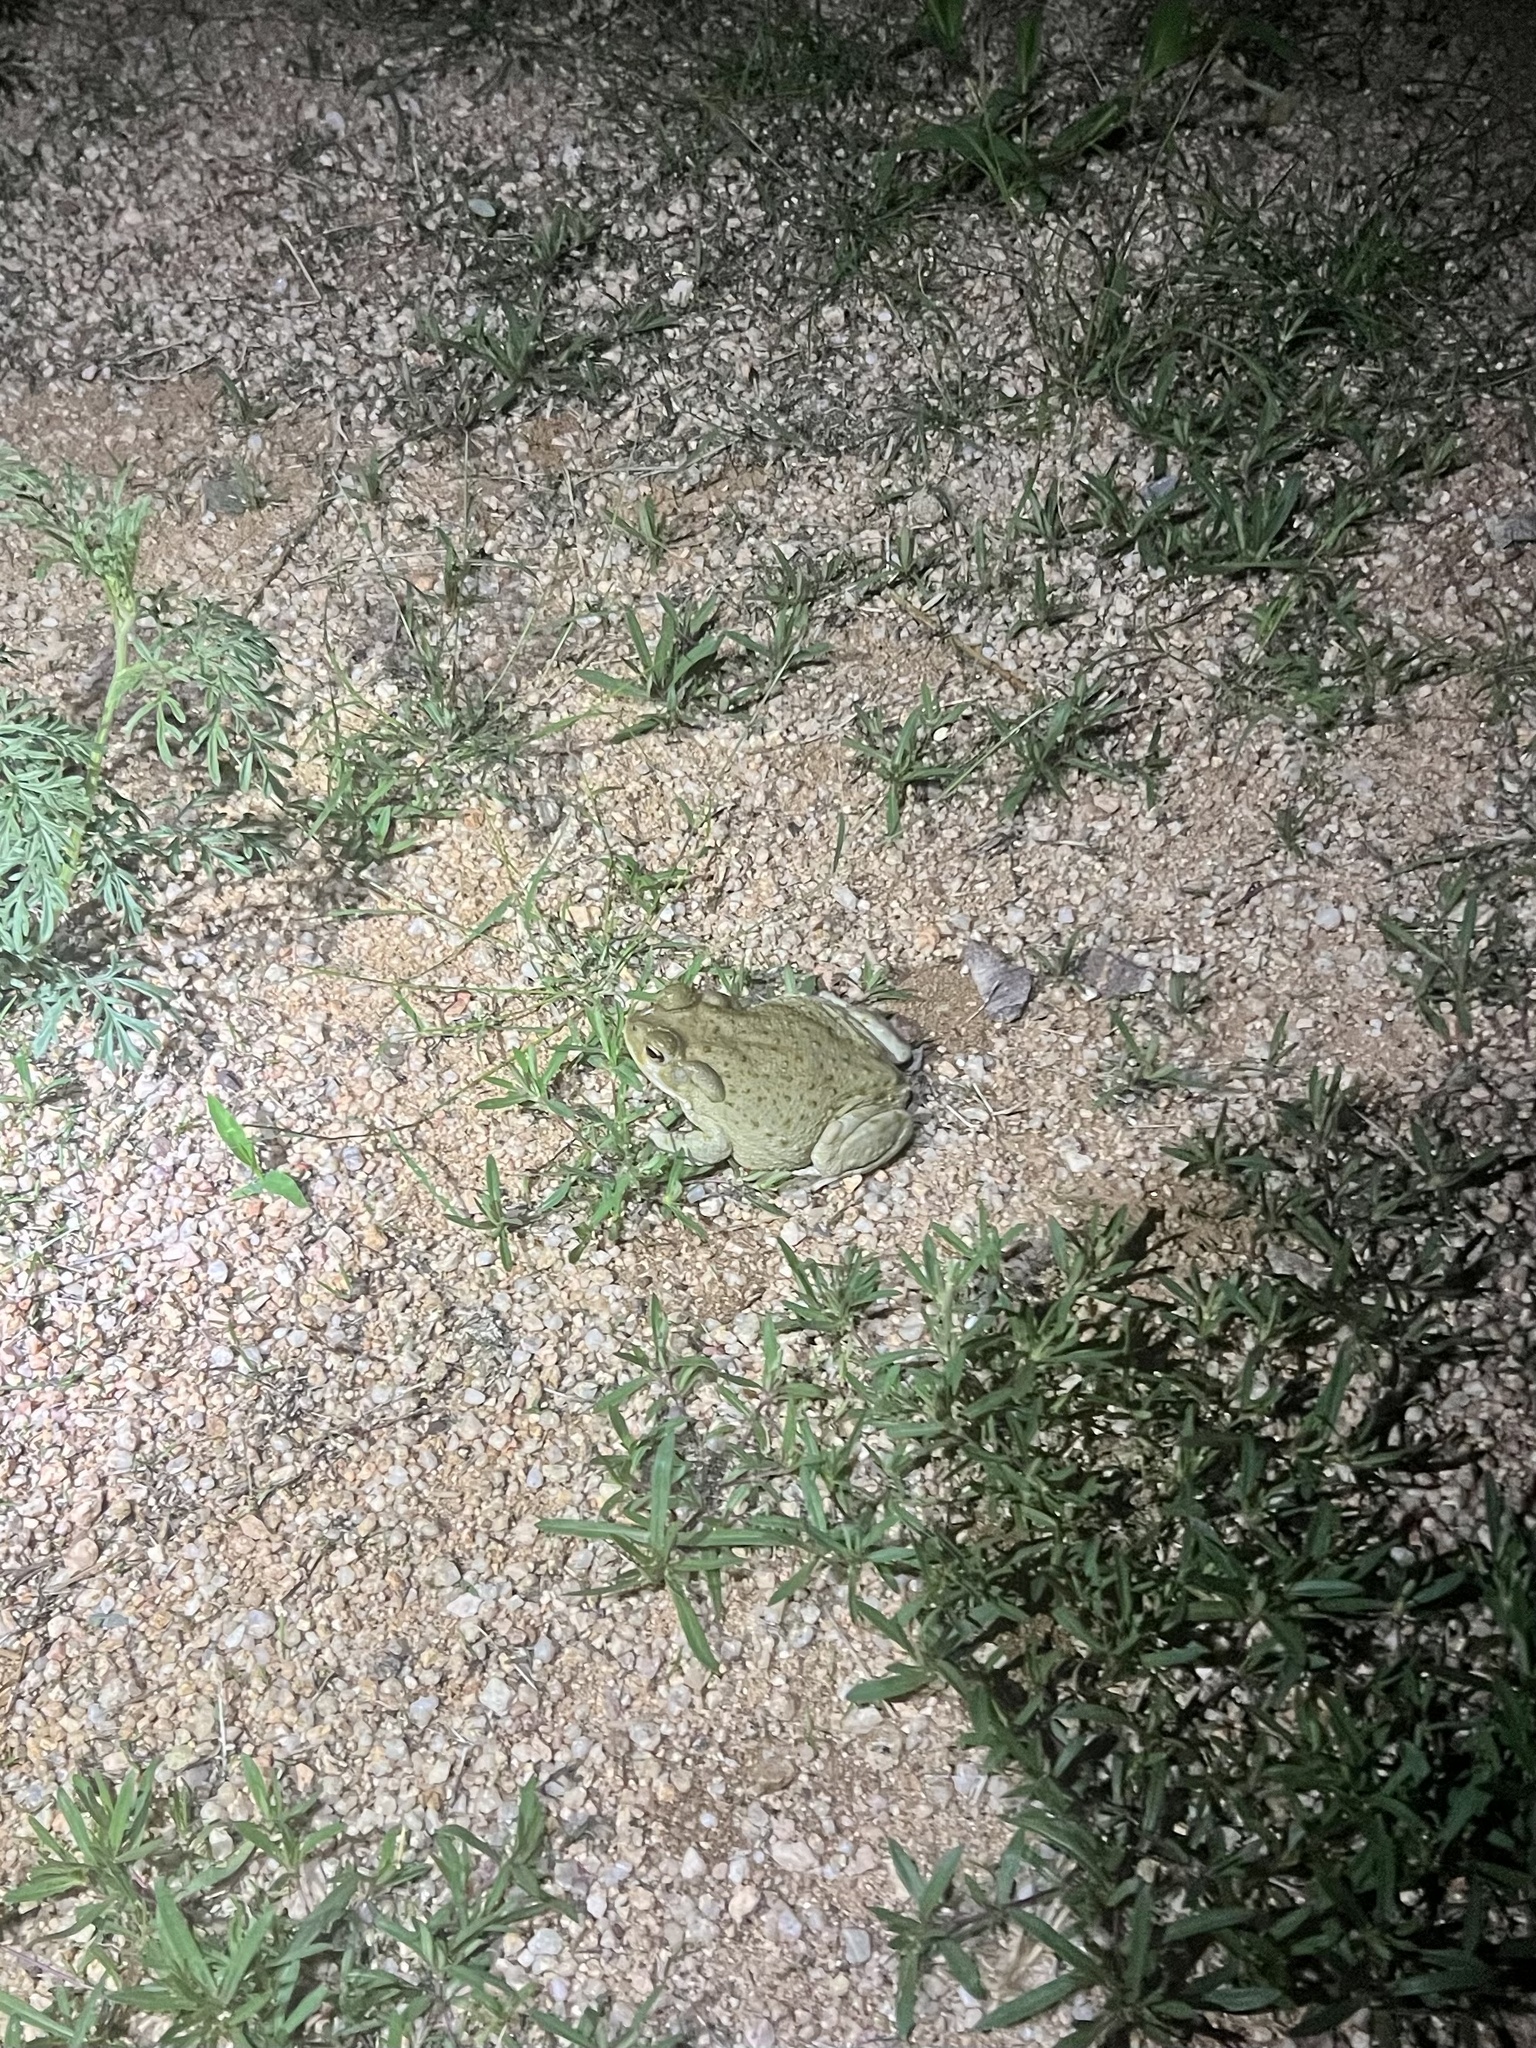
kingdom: Animalia
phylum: Chordata
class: Amphibia
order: Anura
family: Bufonidae
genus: Incilius
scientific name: Incilius alvarius
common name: Sonoran desert toad
